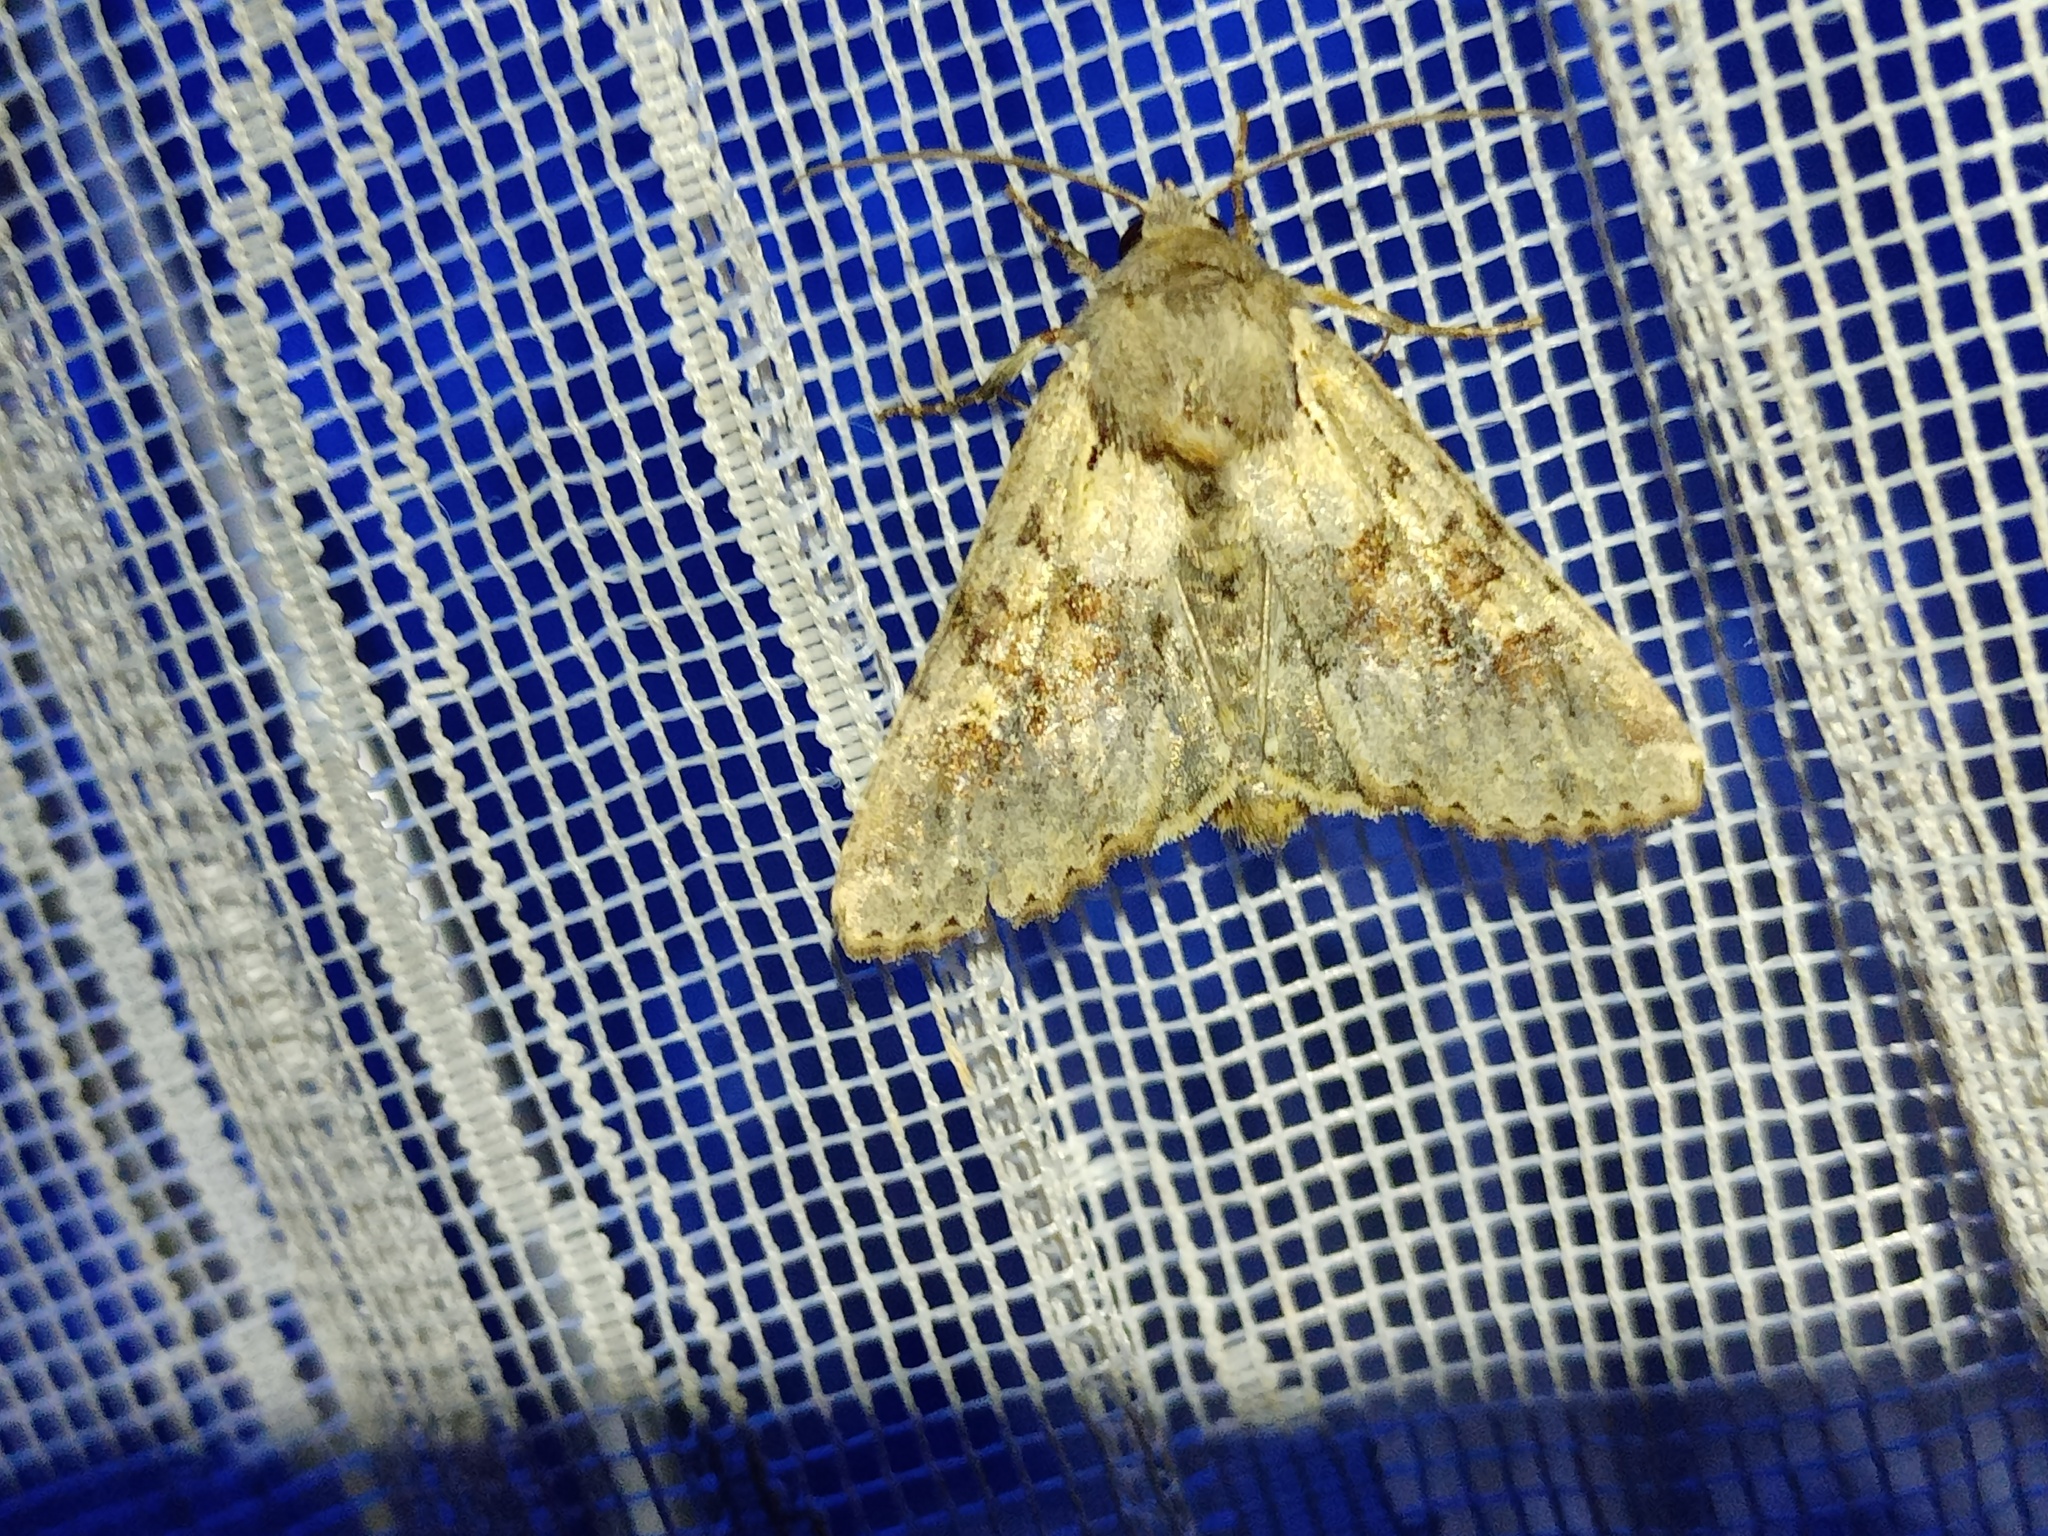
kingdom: Animalia
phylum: Arthropoda
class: Insecta
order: Lepidoptera
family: Noctuidae
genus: Apamea
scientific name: Apamea sordens
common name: Rustic shoulder-knot
